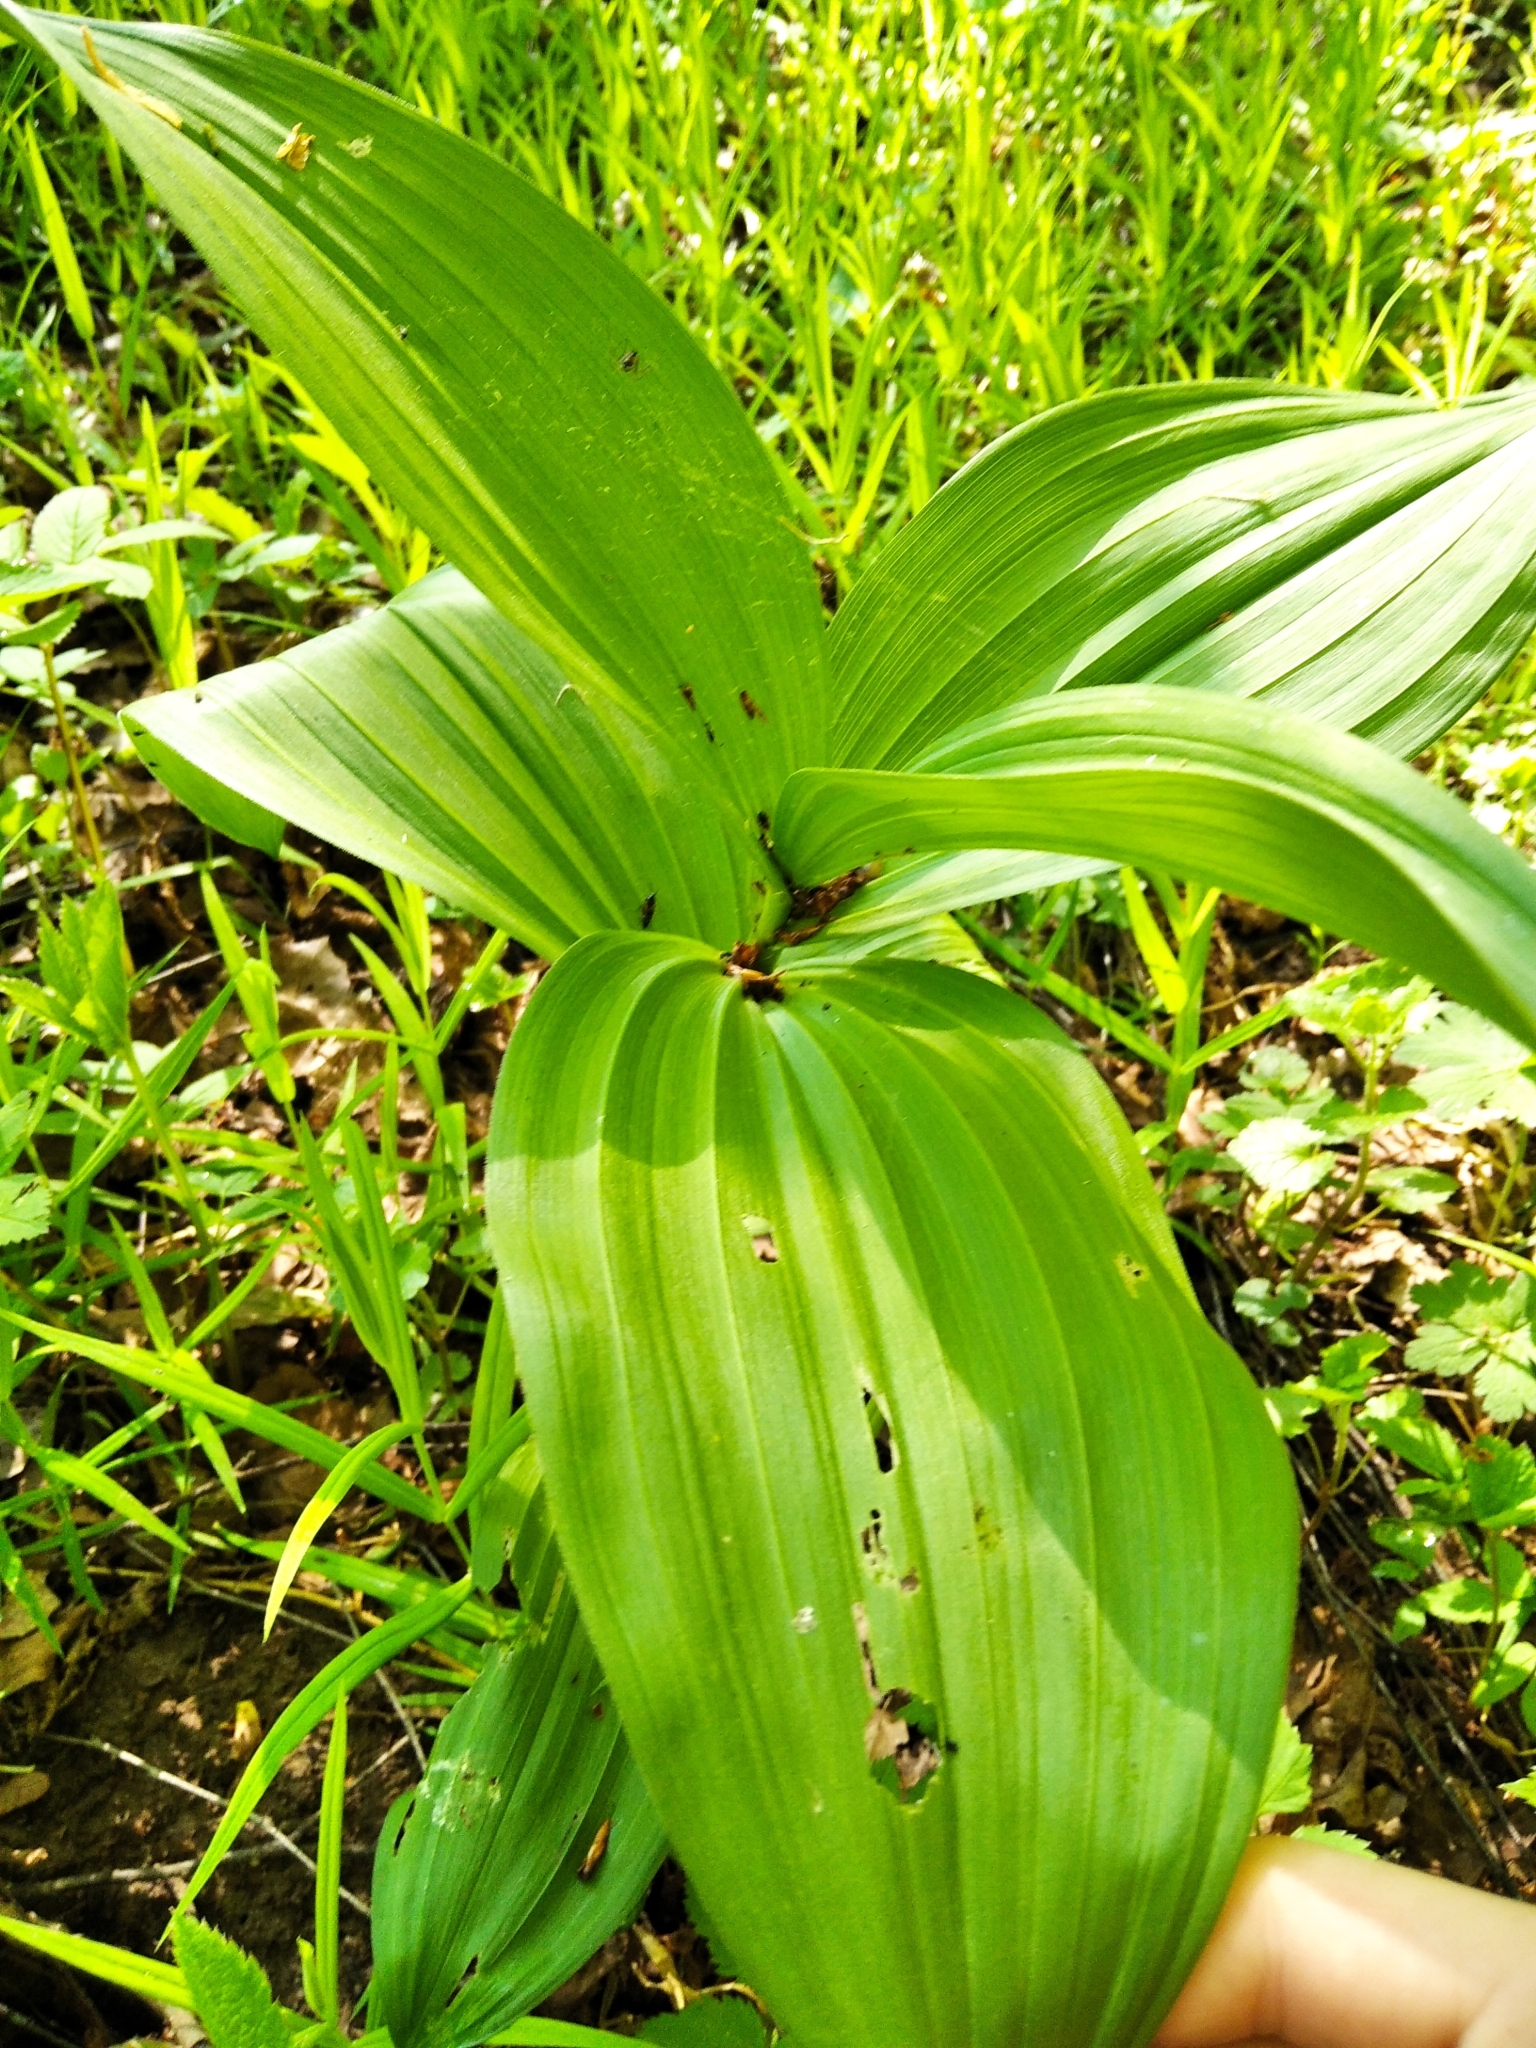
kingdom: Plantae
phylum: Tracheophyta
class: Liliopsida
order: Liliales
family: Melanthiaceae
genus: Veratrum
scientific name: Veratrum lobelianum
